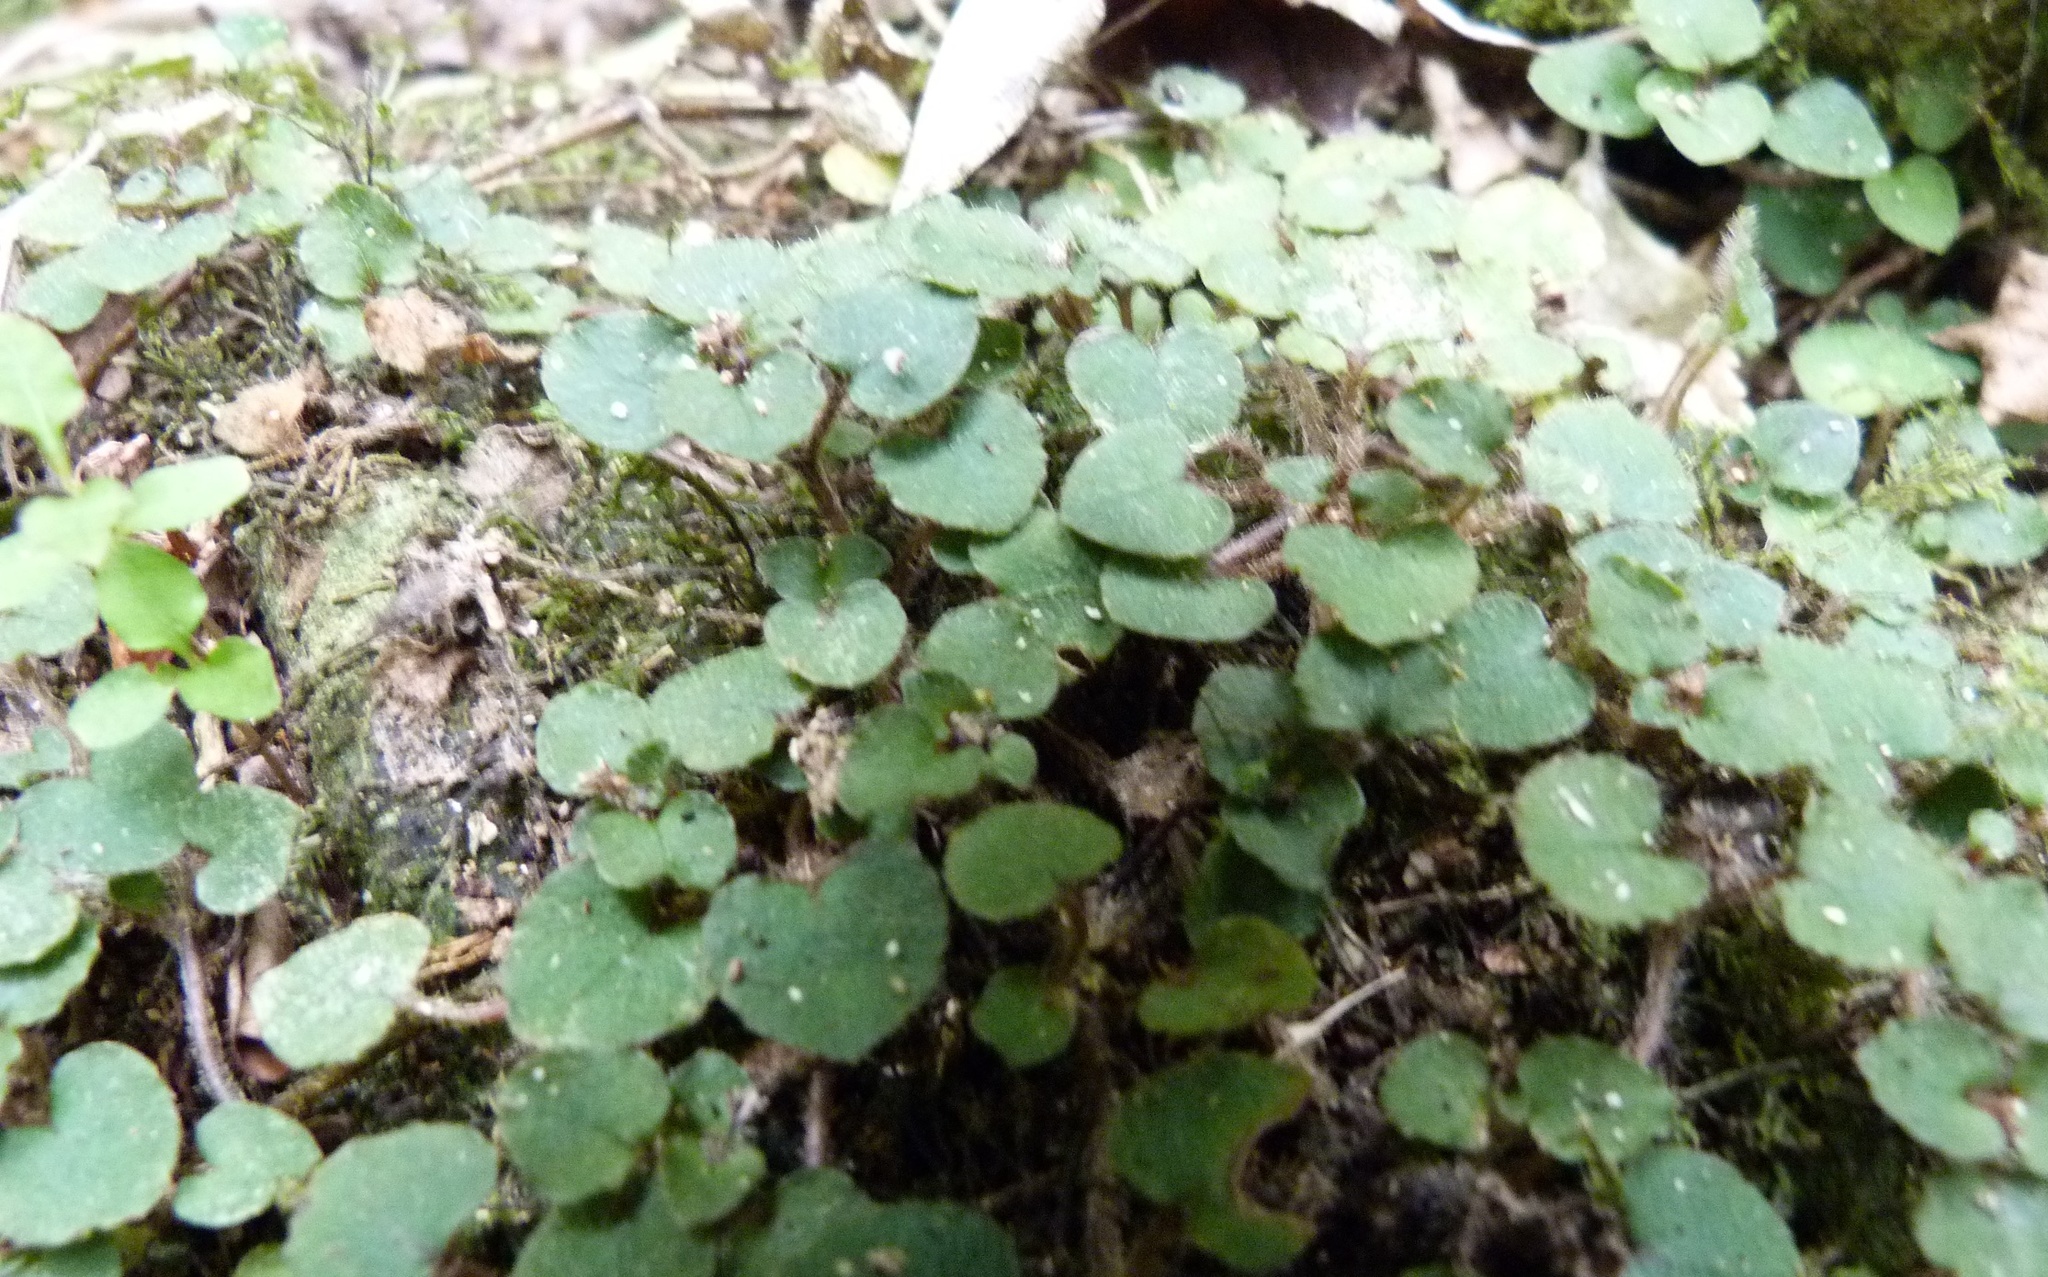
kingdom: Plantae
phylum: Tracheophyta
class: Magnoliopsida
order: Gentianales
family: Rubiaceae
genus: Nertera
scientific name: Nertera villosa
